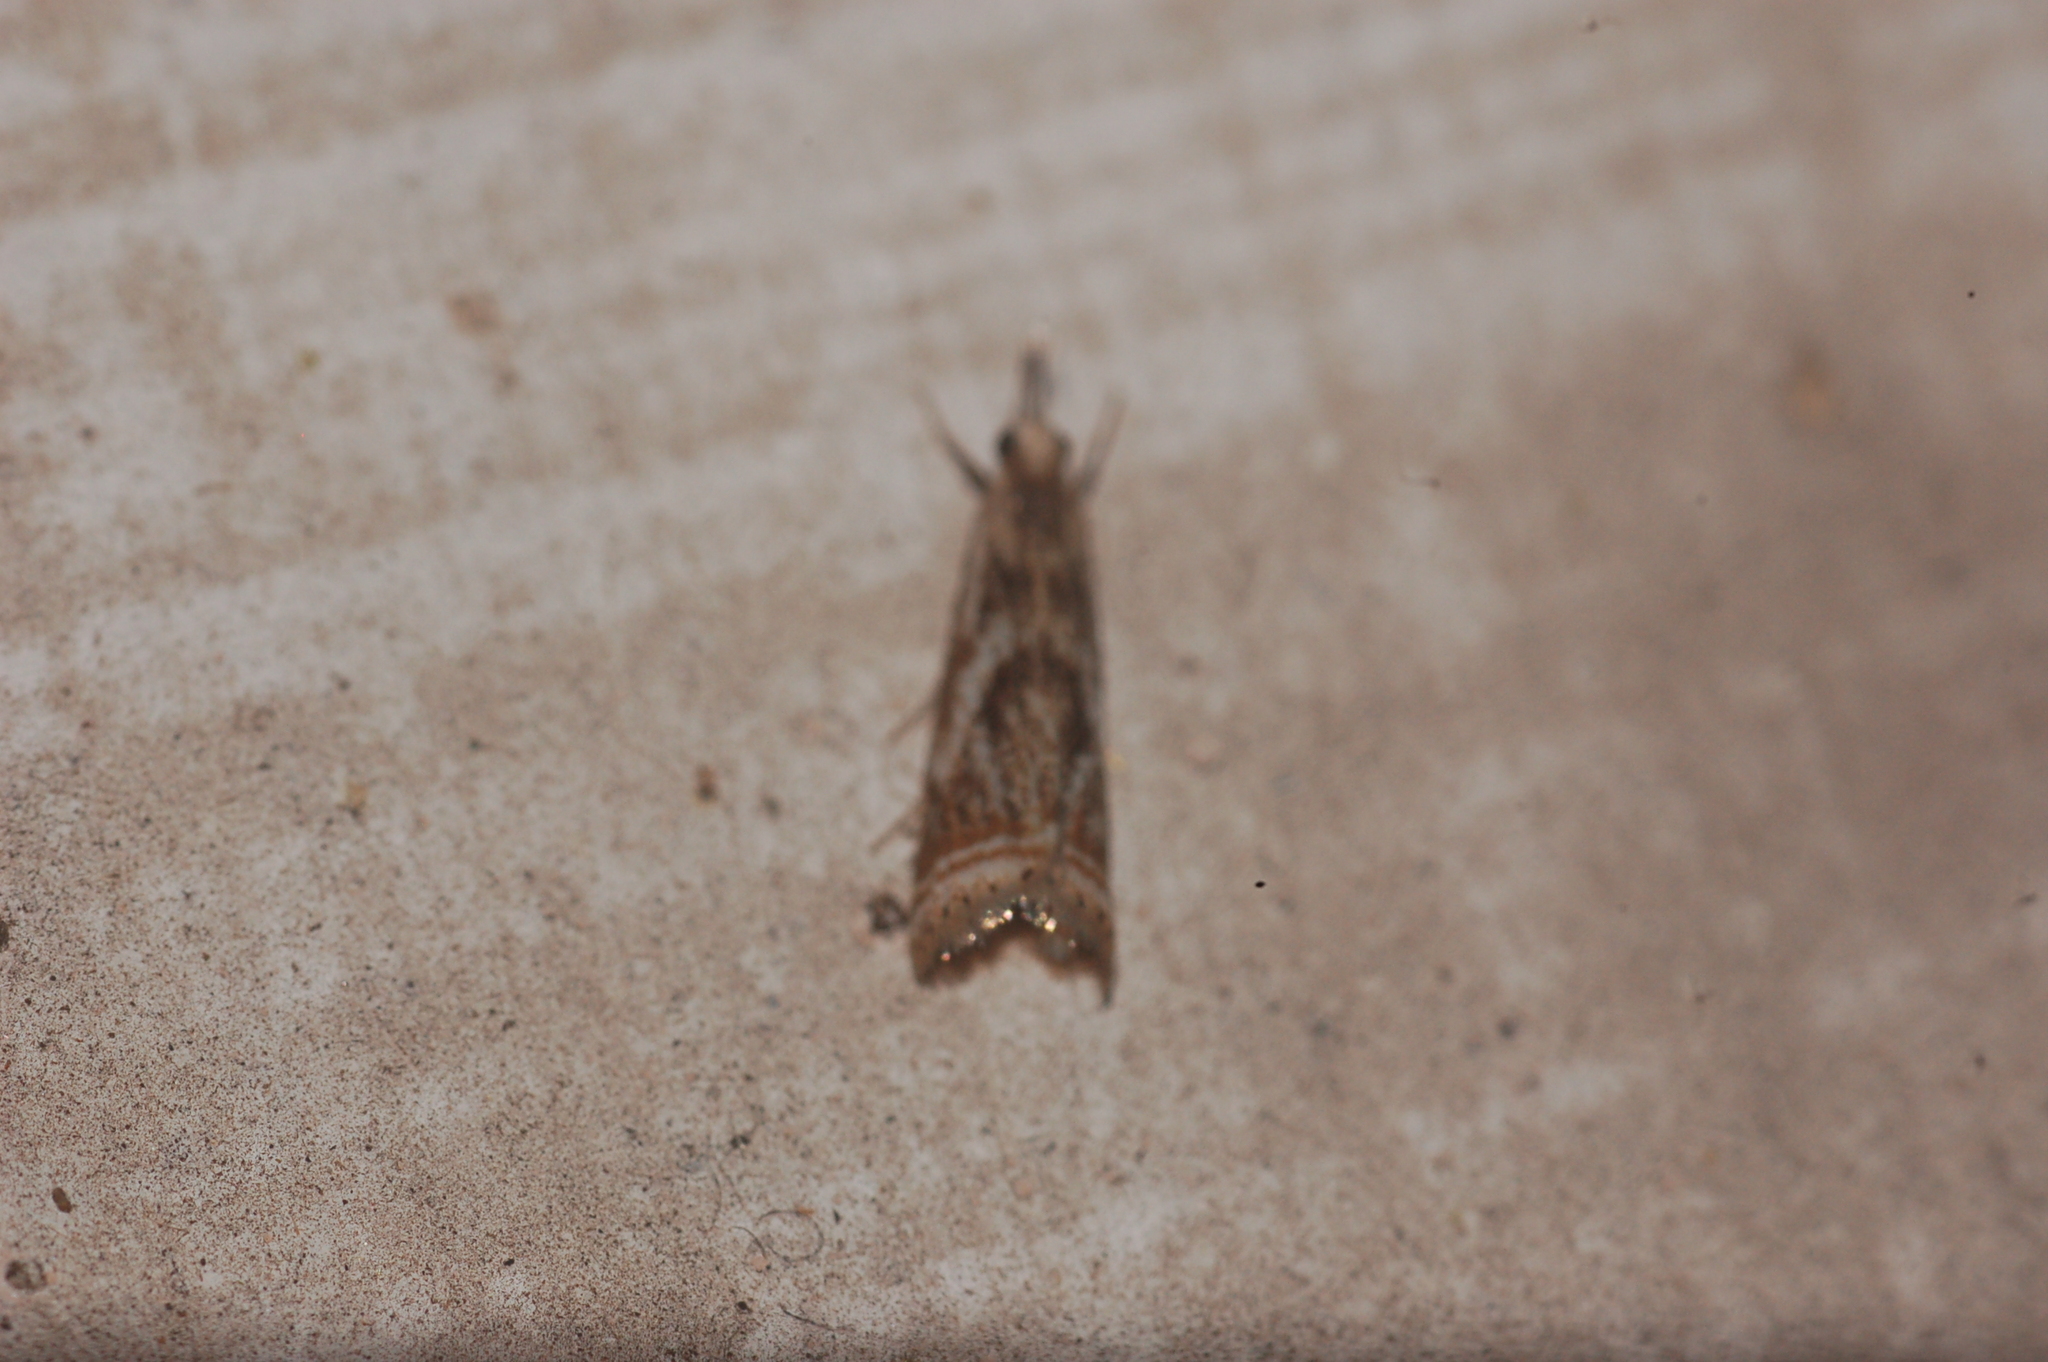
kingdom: Animalia
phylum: Arthropoda
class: Insecta
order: Lepidoptera
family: Crambidae
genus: Microcrambus
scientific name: Microcrambus elegans
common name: Elegant grass-veneer
